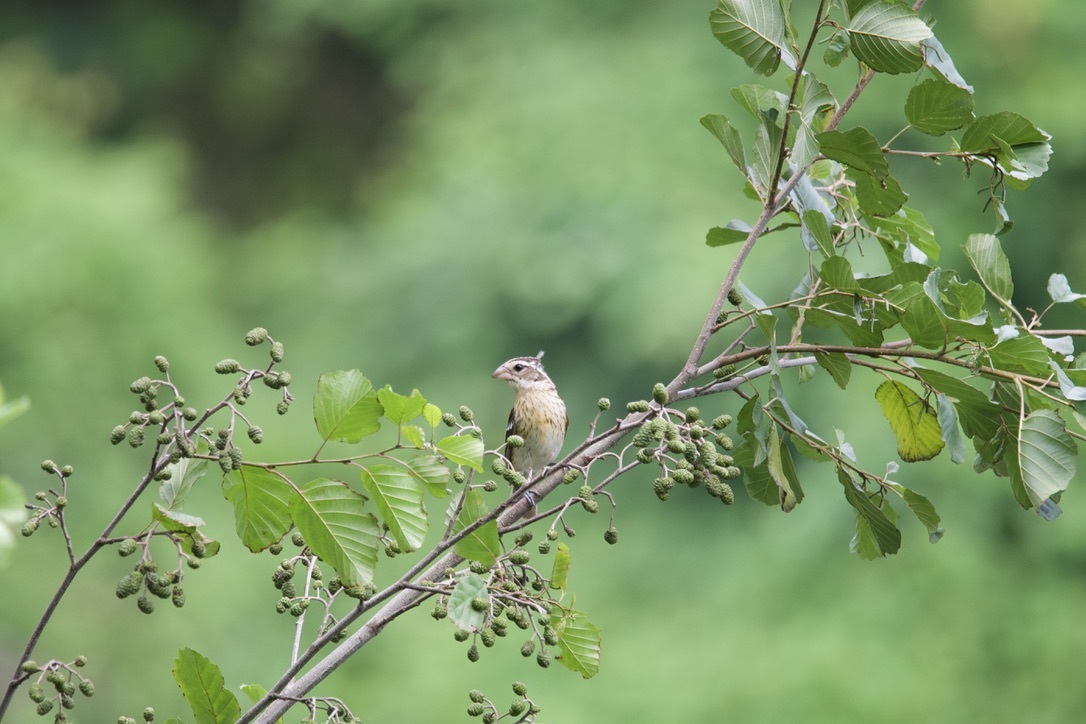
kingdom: Animalia
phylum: Chordata
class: Aves
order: Passeriformes
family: Cardinalidae
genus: Pheucticus
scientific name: Pheucticus ludovicianus
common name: Rose-breasted grosbeak
